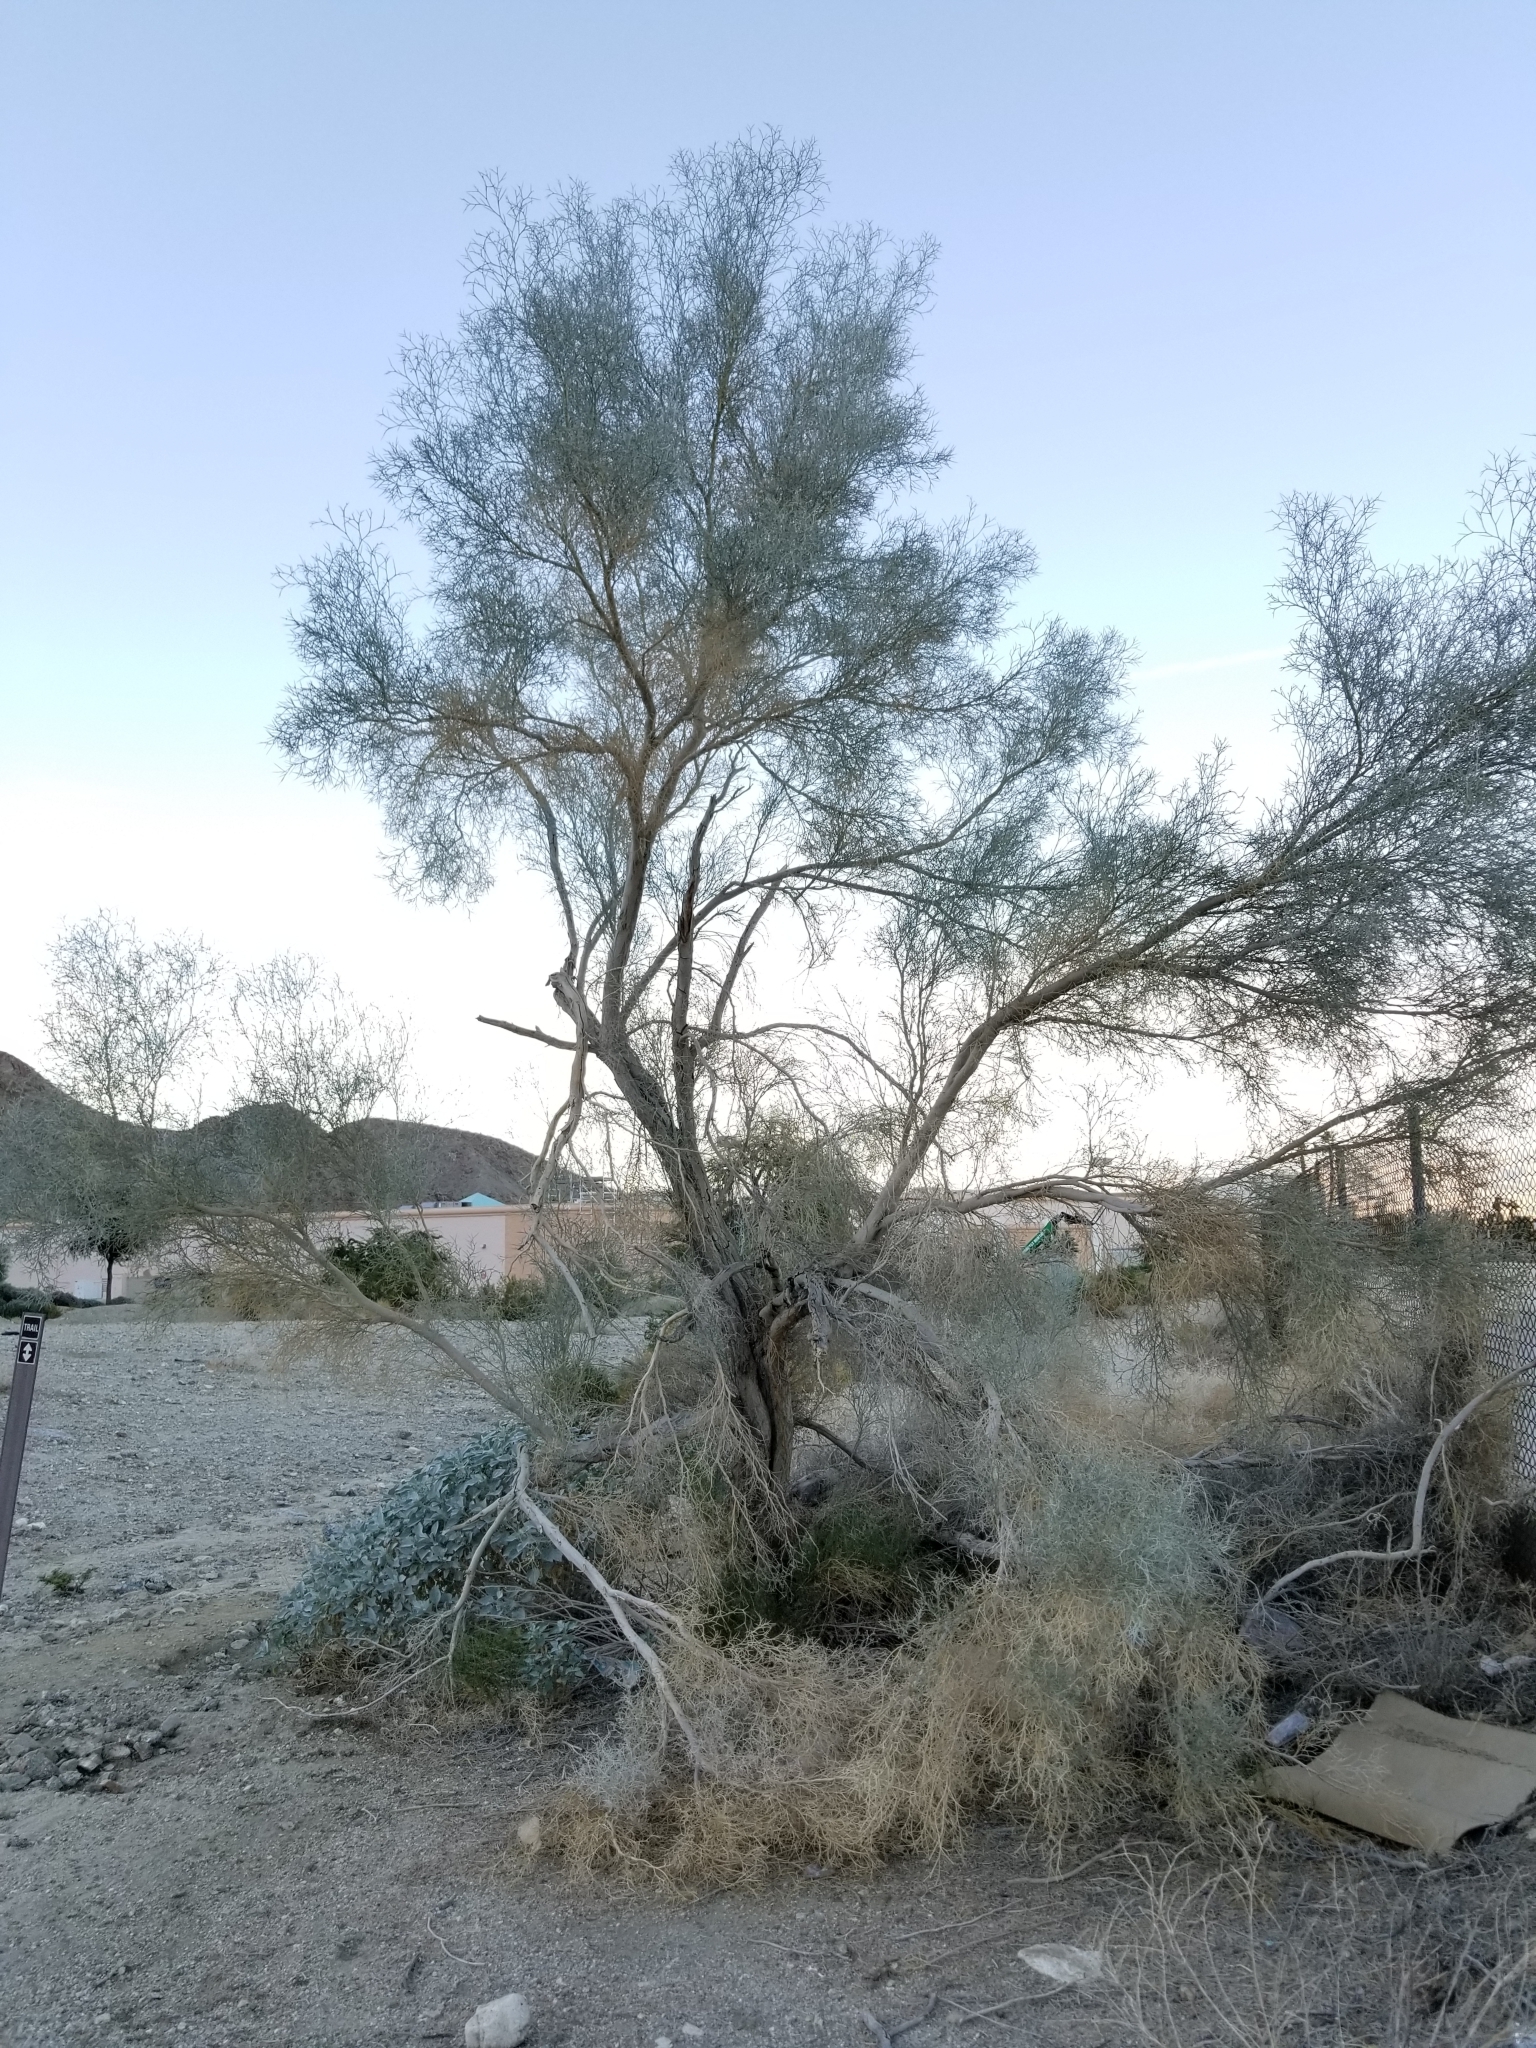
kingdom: Plantae
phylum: Tracheophyta
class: Magnoliopsida
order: Fabales
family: Fabaceae
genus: Psorothamnus
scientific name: Psorothamnus spinosus
